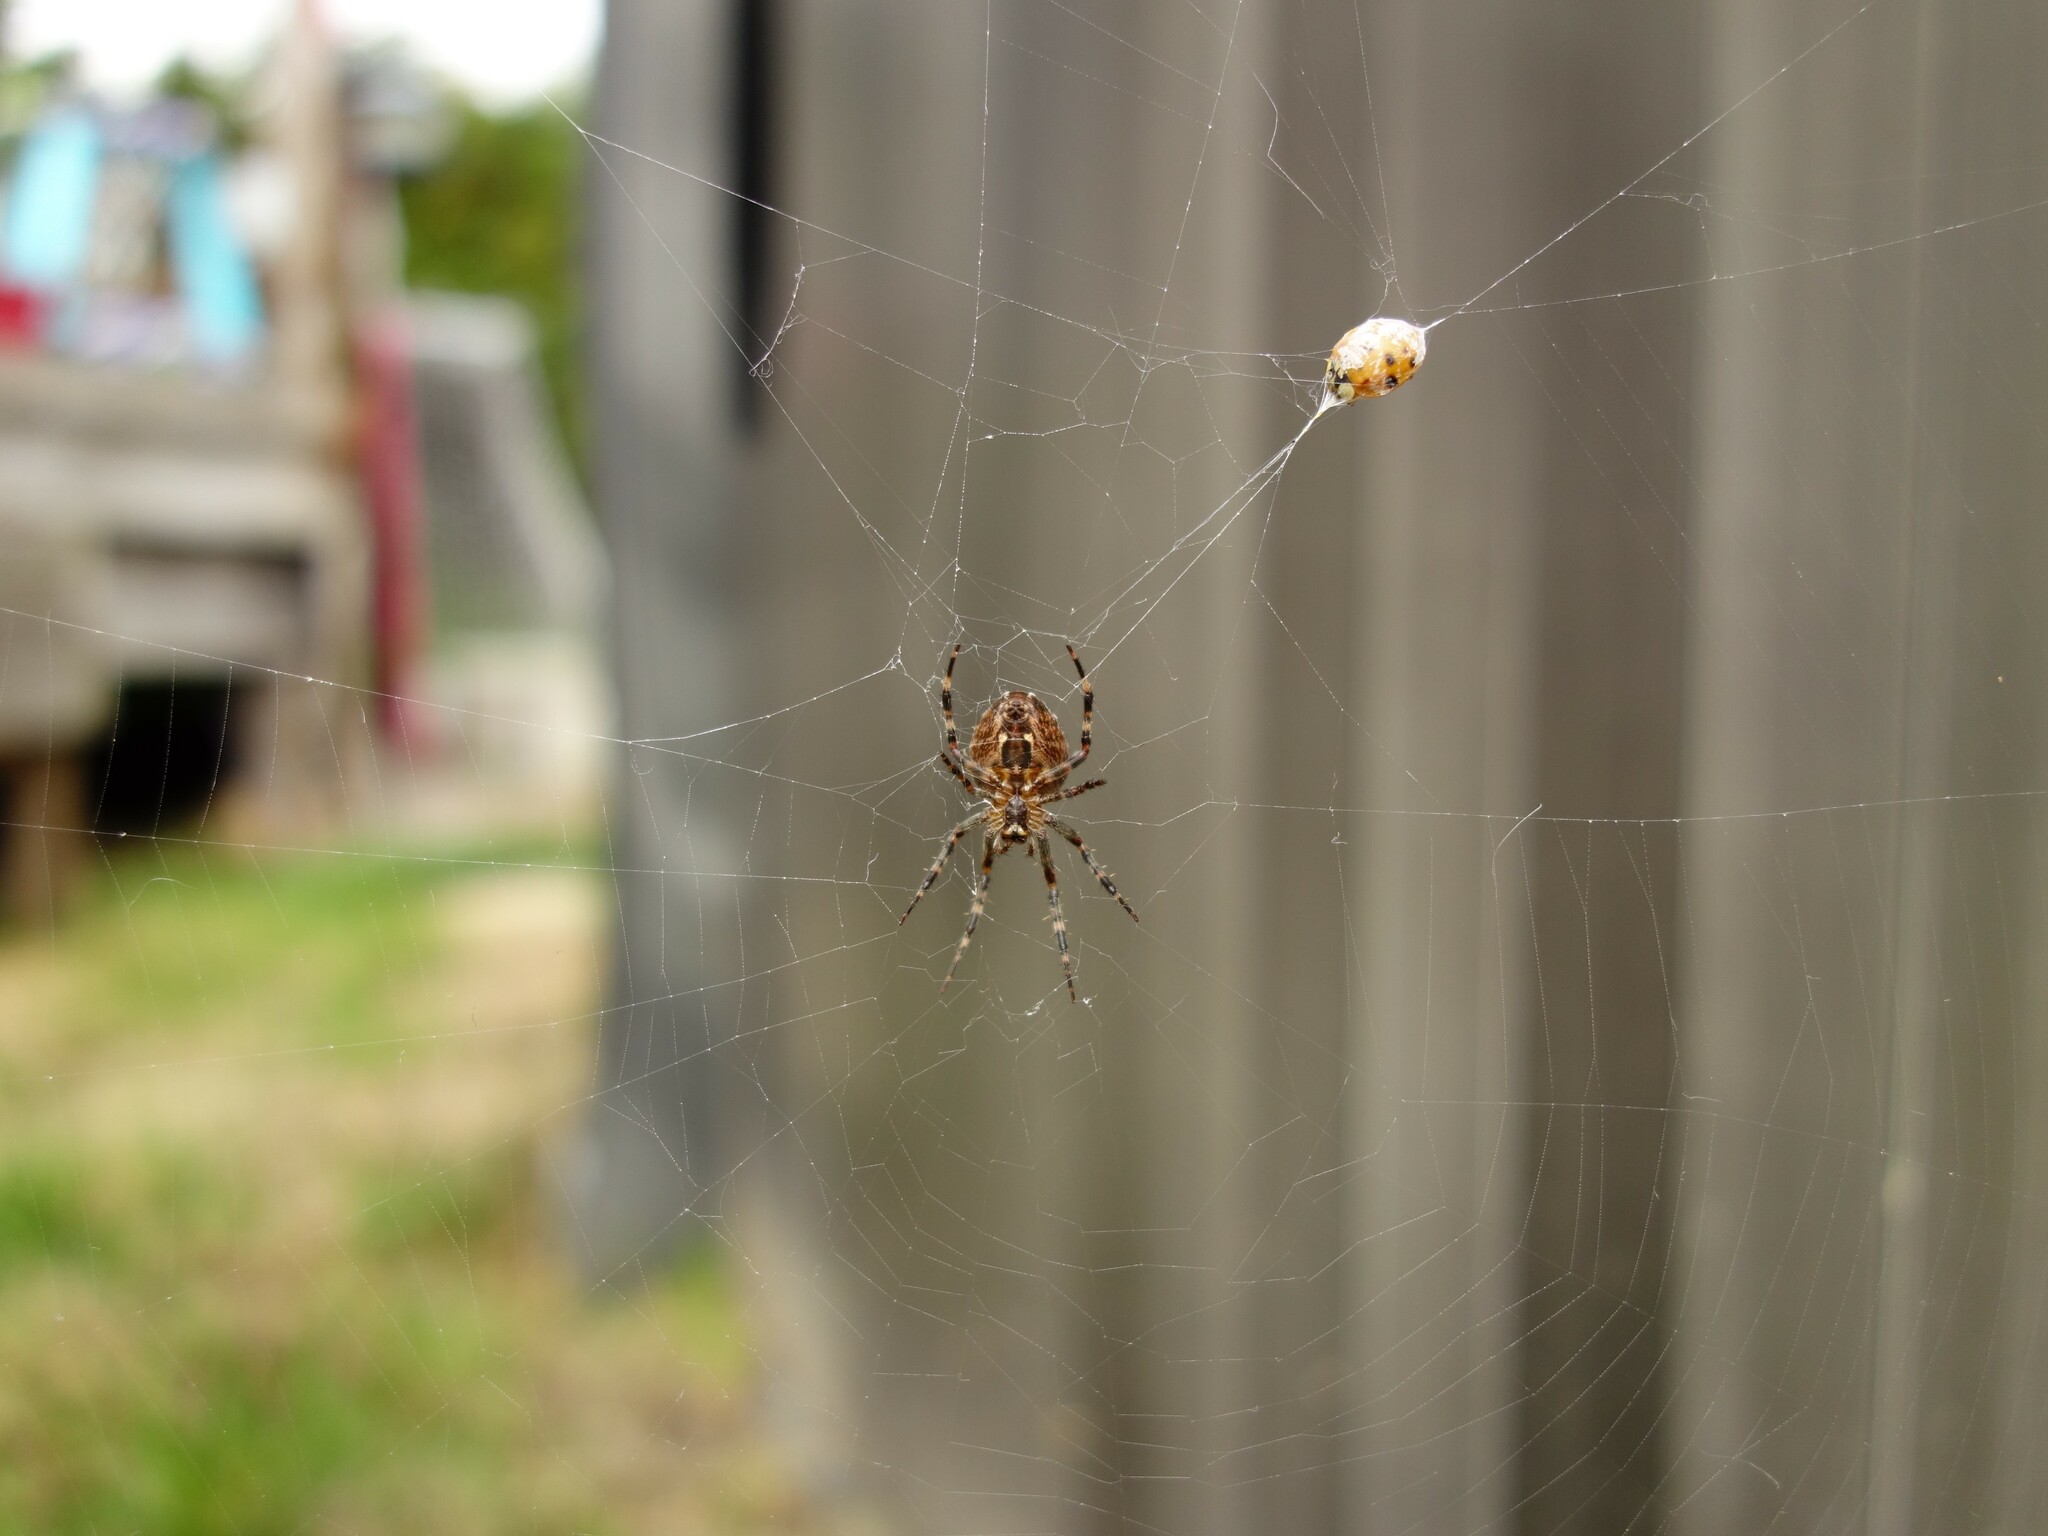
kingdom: Animalia
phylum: Arthropoda
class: Arachnida
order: Araneae
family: Araneidae
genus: Araneus
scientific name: Araneus diadematus
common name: Cross orbweaver
